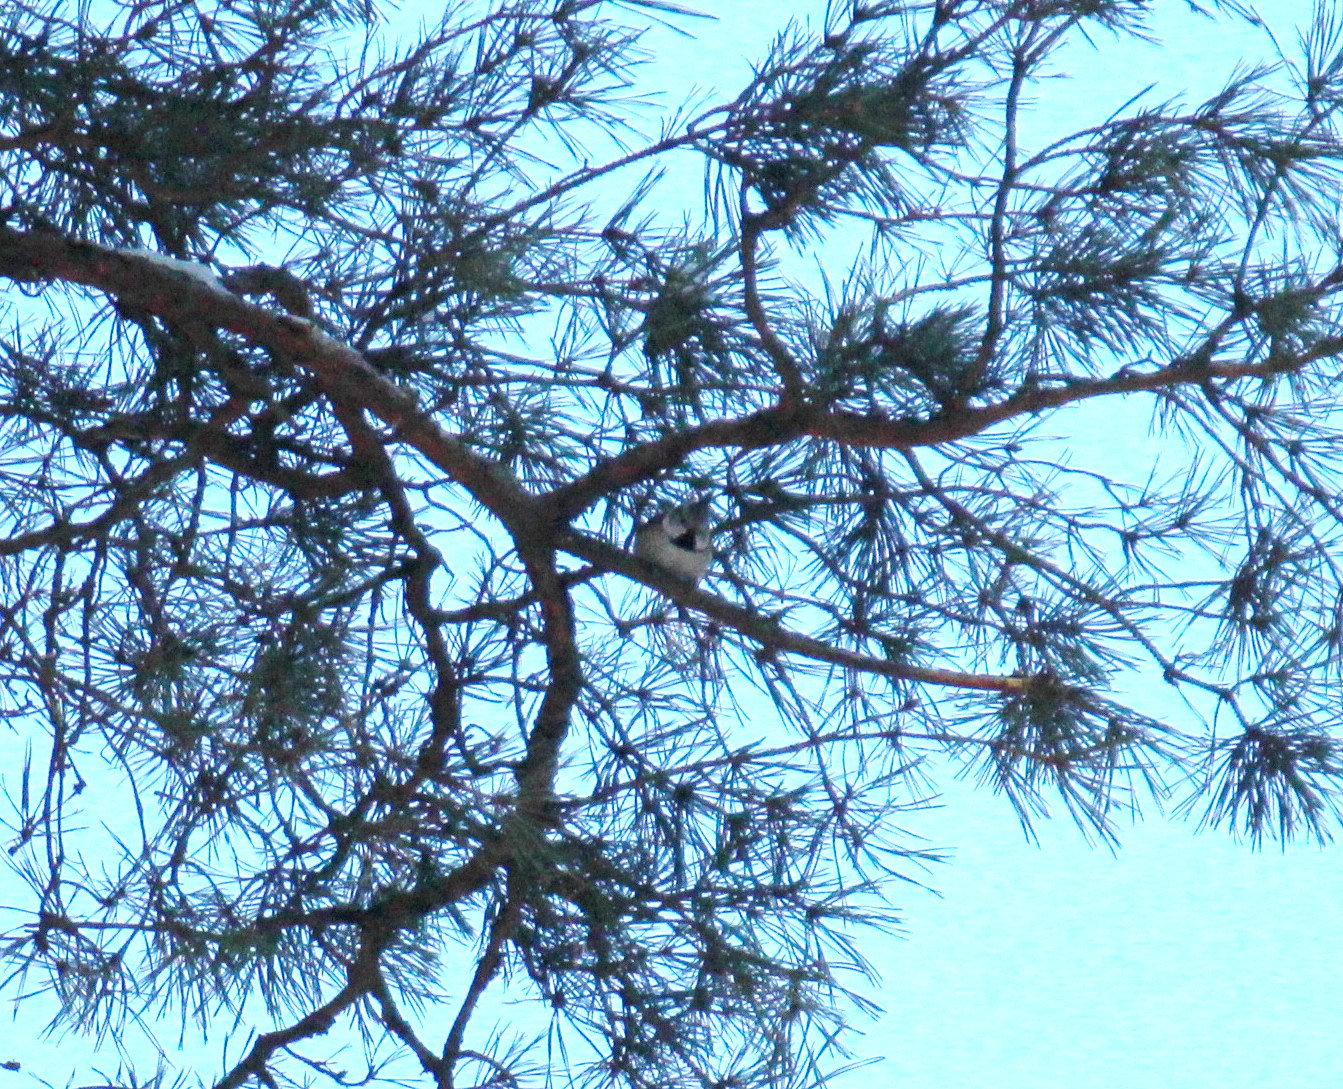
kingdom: Animalia
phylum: Chordata
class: Aves
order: Passeriformes
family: Paridae
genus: Lophophanes
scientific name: Lophophanes cristatus
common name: European crested tit
